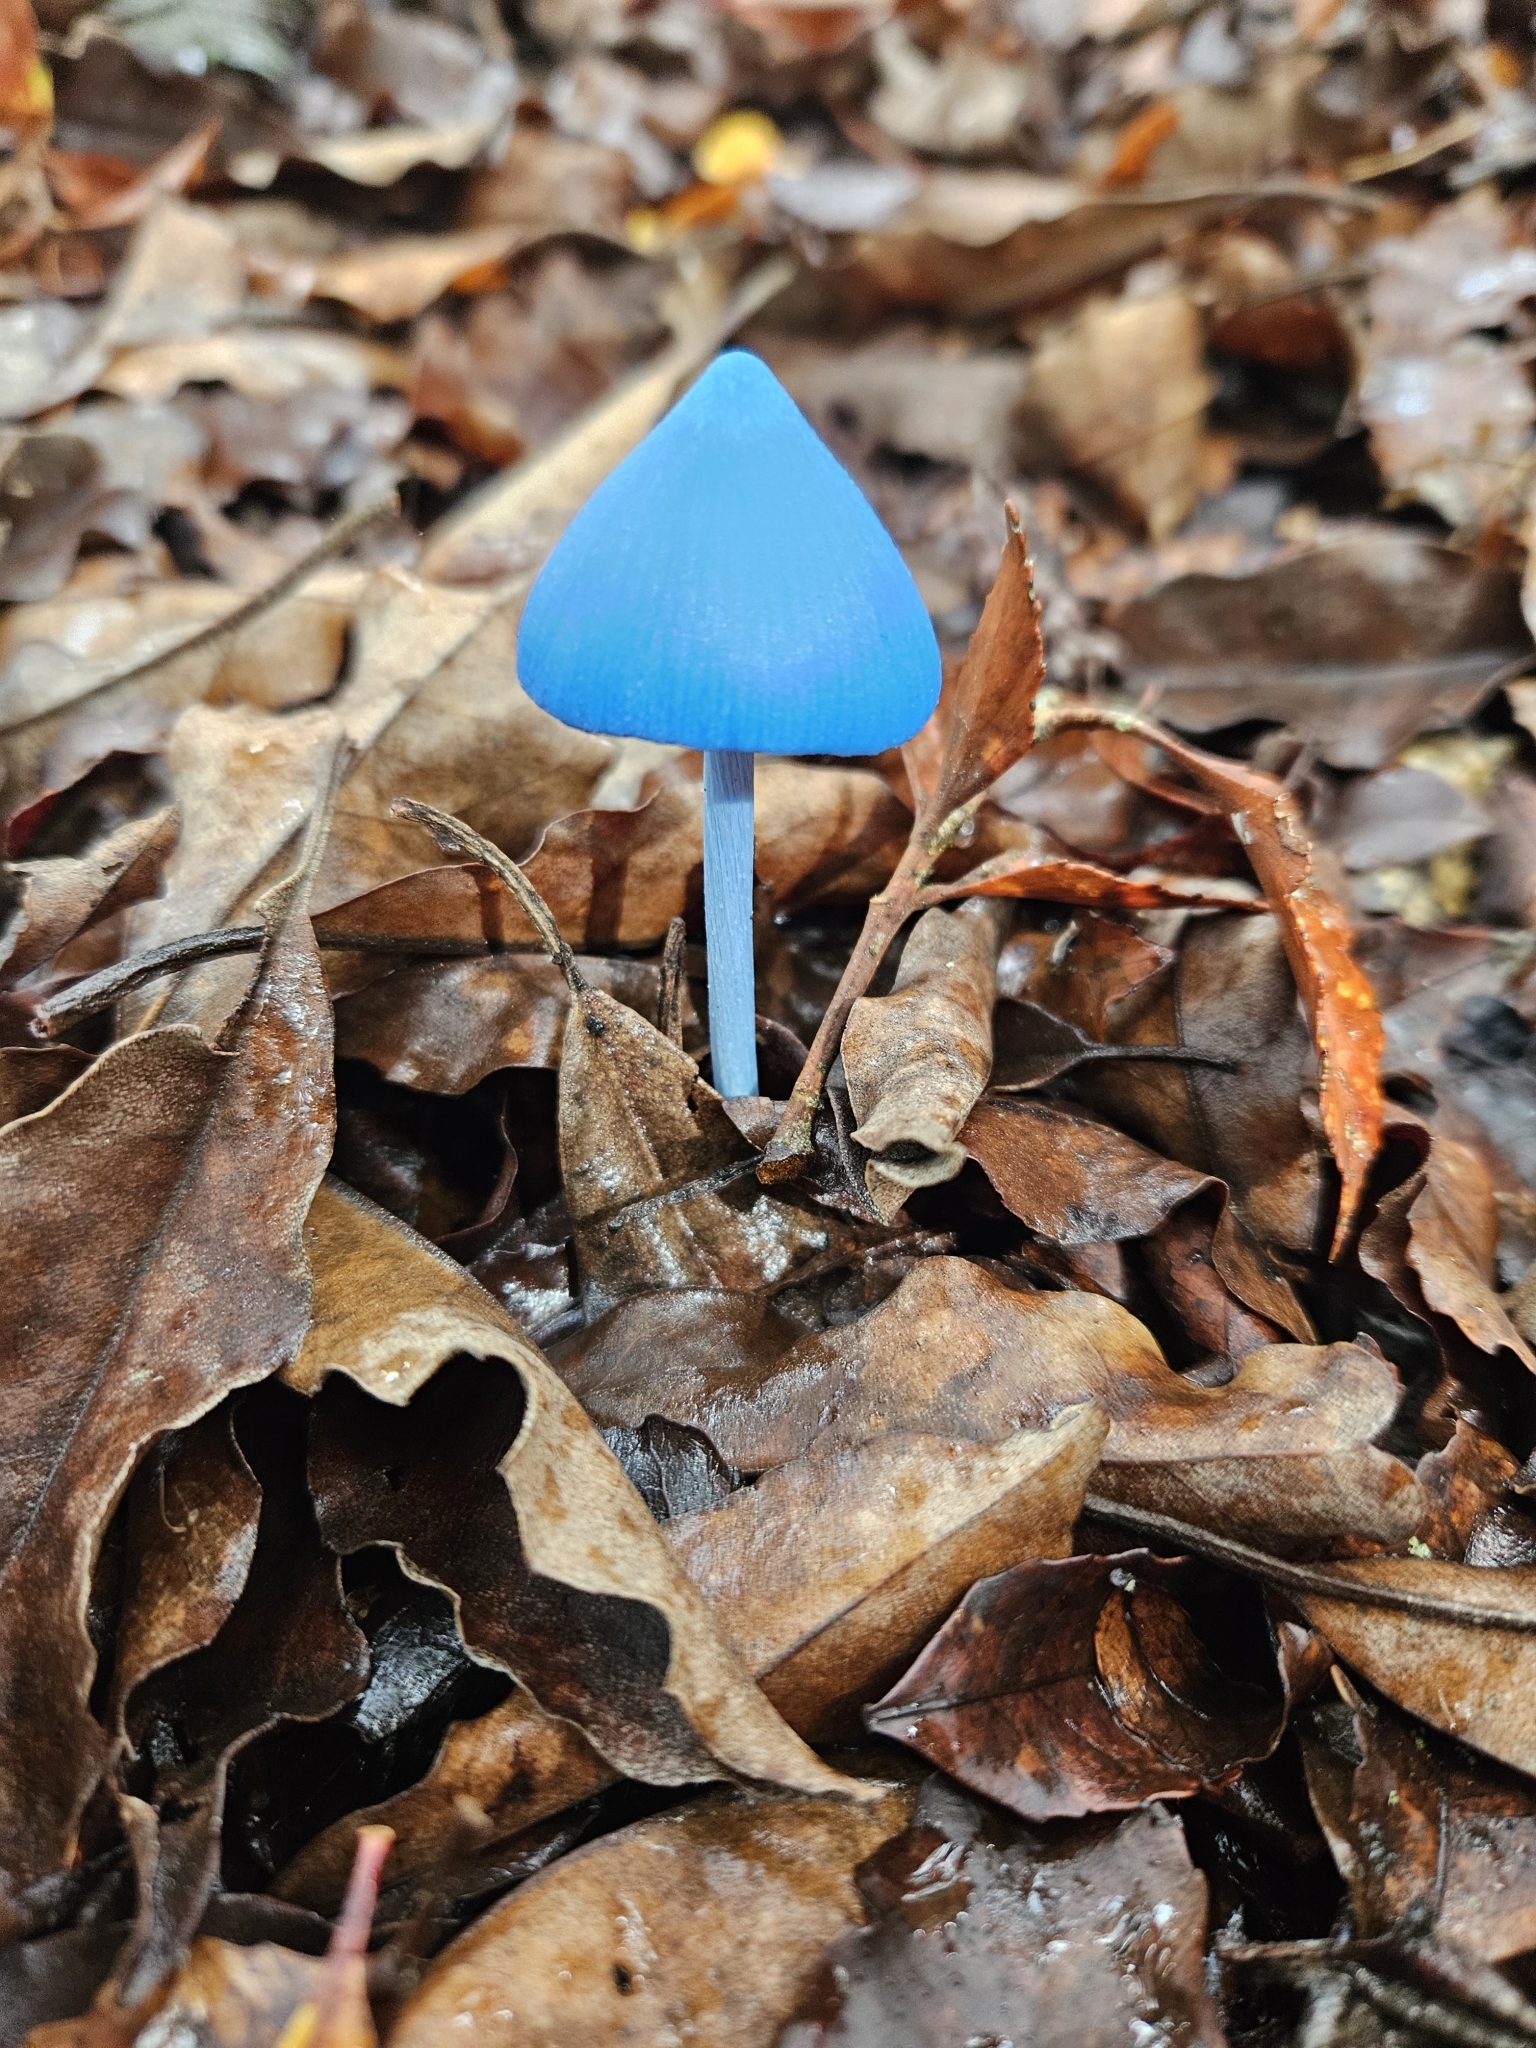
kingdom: Fungi
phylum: Basidiomycota
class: Agaricomycetes
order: Agaricales
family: Entolomataceae
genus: Entoloma
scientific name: Entoloma hochstetteri
